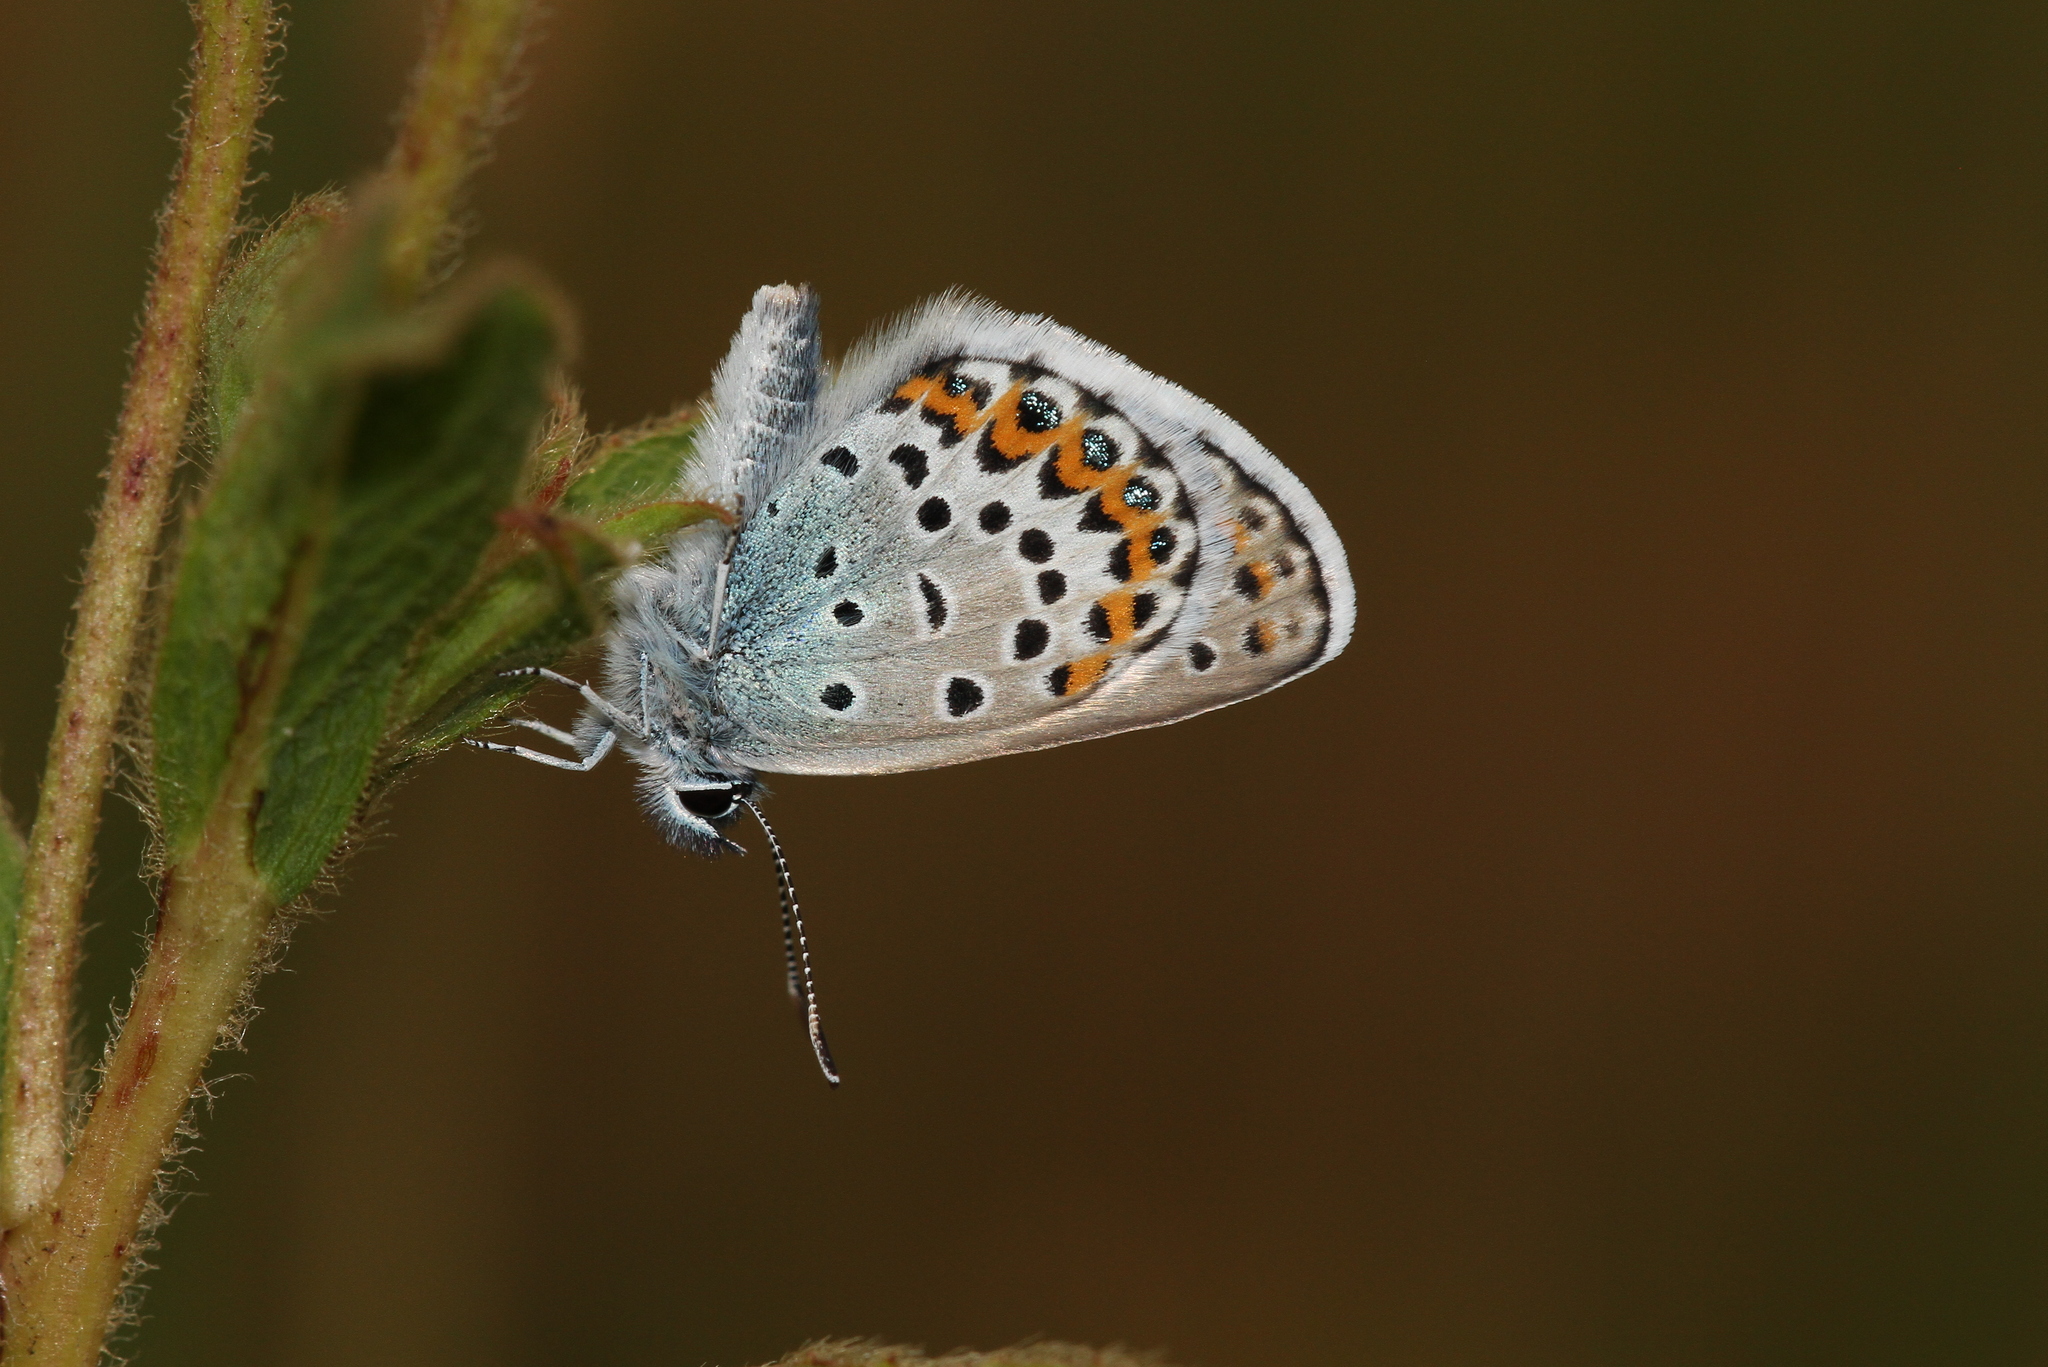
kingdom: Animalia
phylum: Arthropoda
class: Insecta
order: Lepidoptera
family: Lycaenidae
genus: Lycaeides
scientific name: Lycaeides idas
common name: Northern blue
